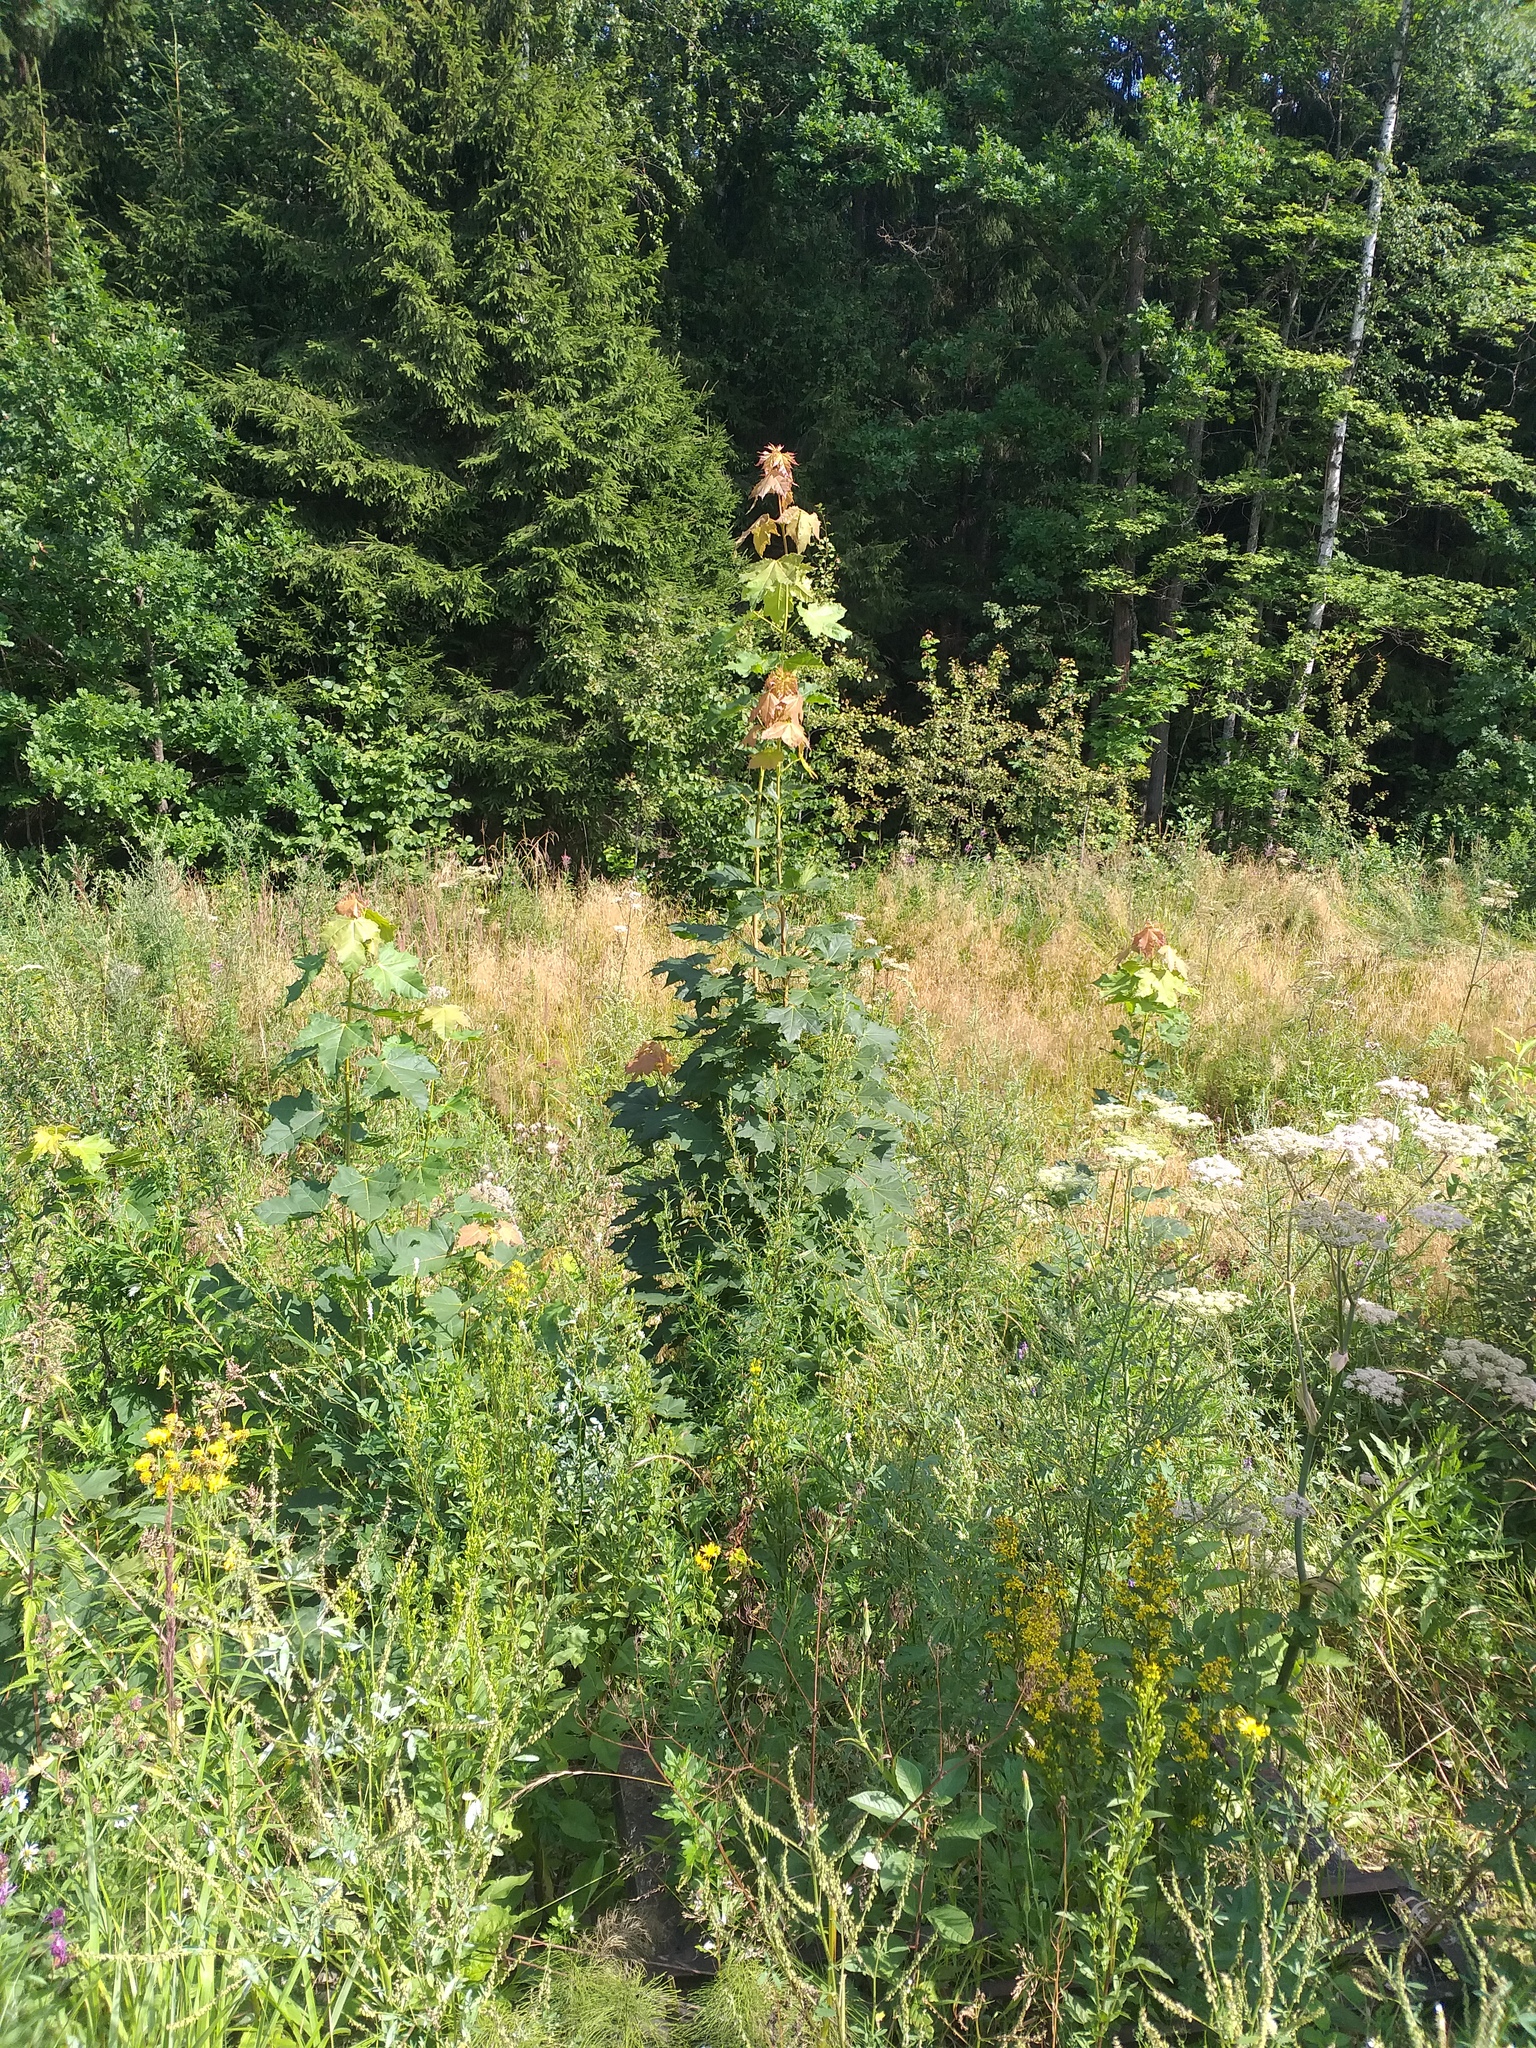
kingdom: Plantae
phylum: Tracheophyta
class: Magnoliopsida
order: Sapindales
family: Sapindaceae
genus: Acer
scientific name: Acer platanoides
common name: Norway maple
